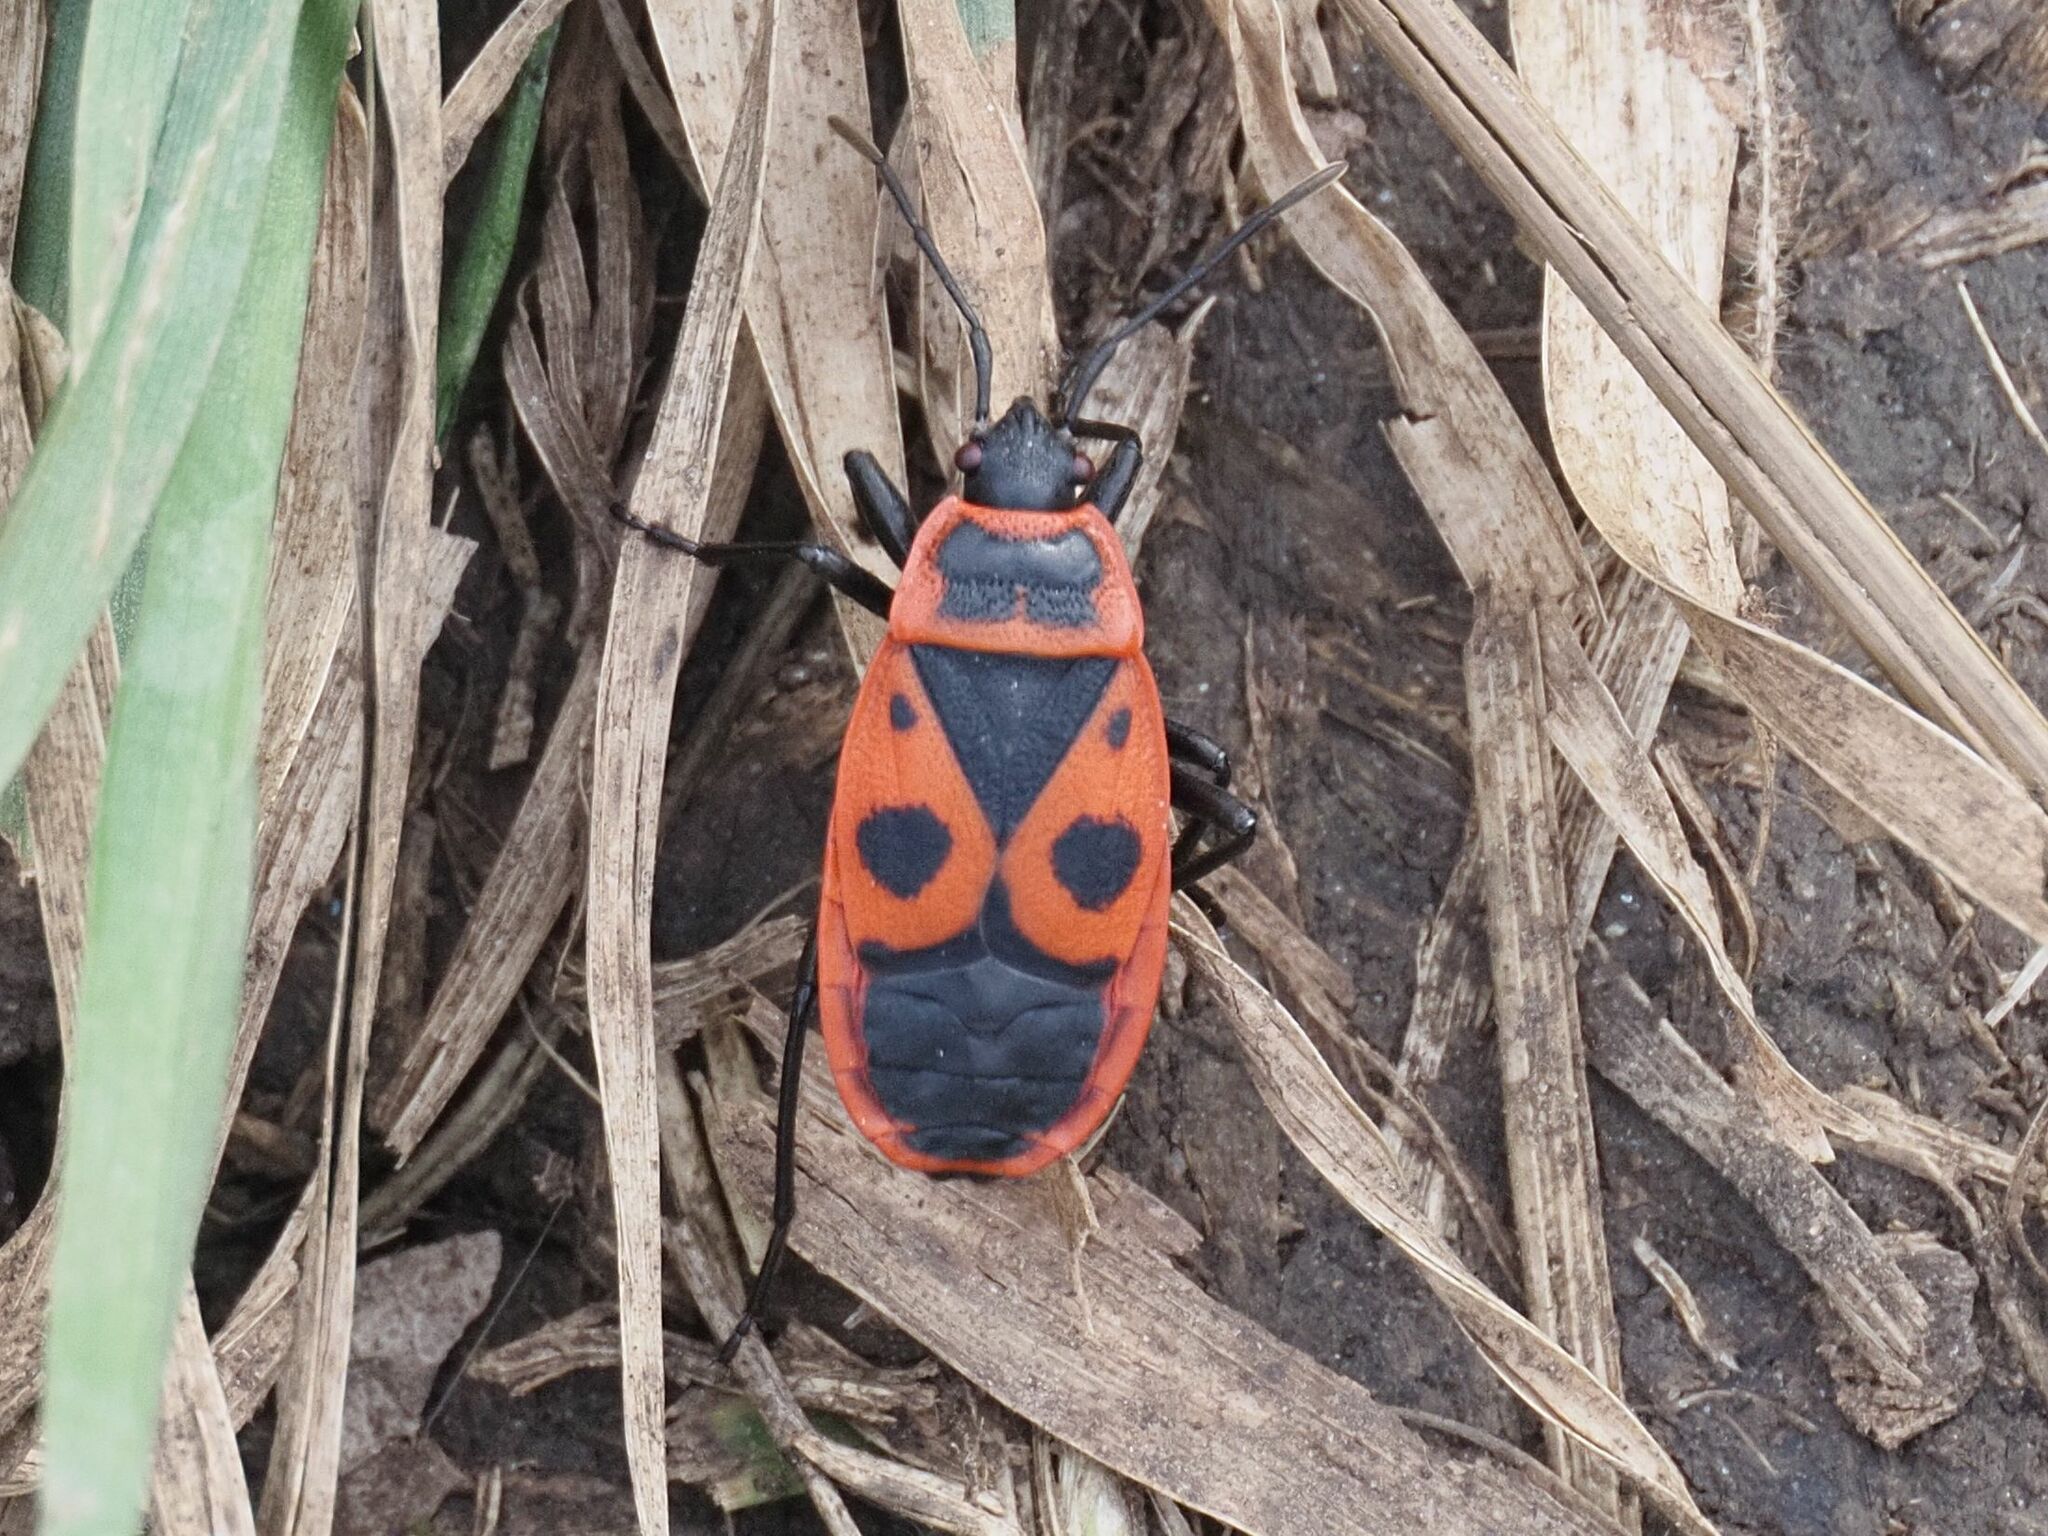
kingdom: Animalia
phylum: Arthropoda
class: Insecta
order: Hemiptera
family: Pyrrhocoridae
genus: Pyrrhocoris
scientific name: Pyrrhocoris apterus
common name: Firebug
